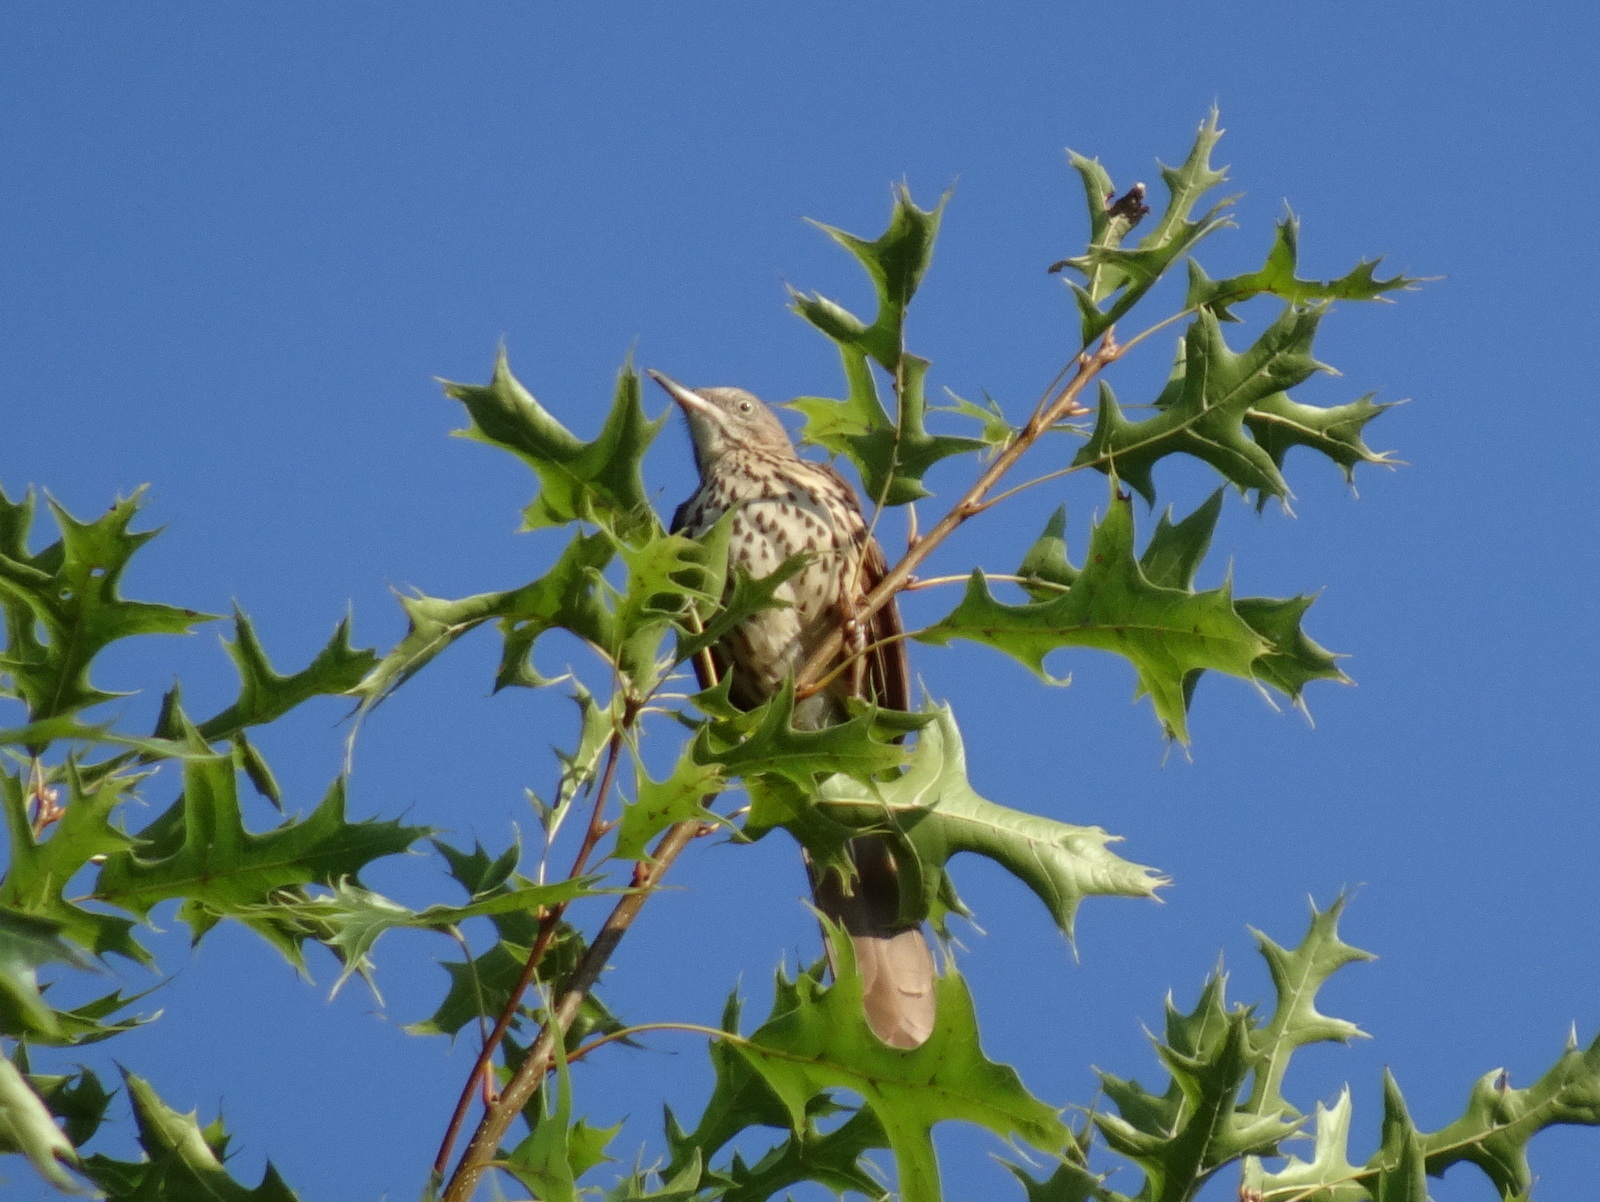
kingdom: Animalia
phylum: Chordata
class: Aves
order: Passeriformes
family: Mimidae
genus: Toxostoma
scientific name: Toxostoma rufum
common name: Brown thrasher
